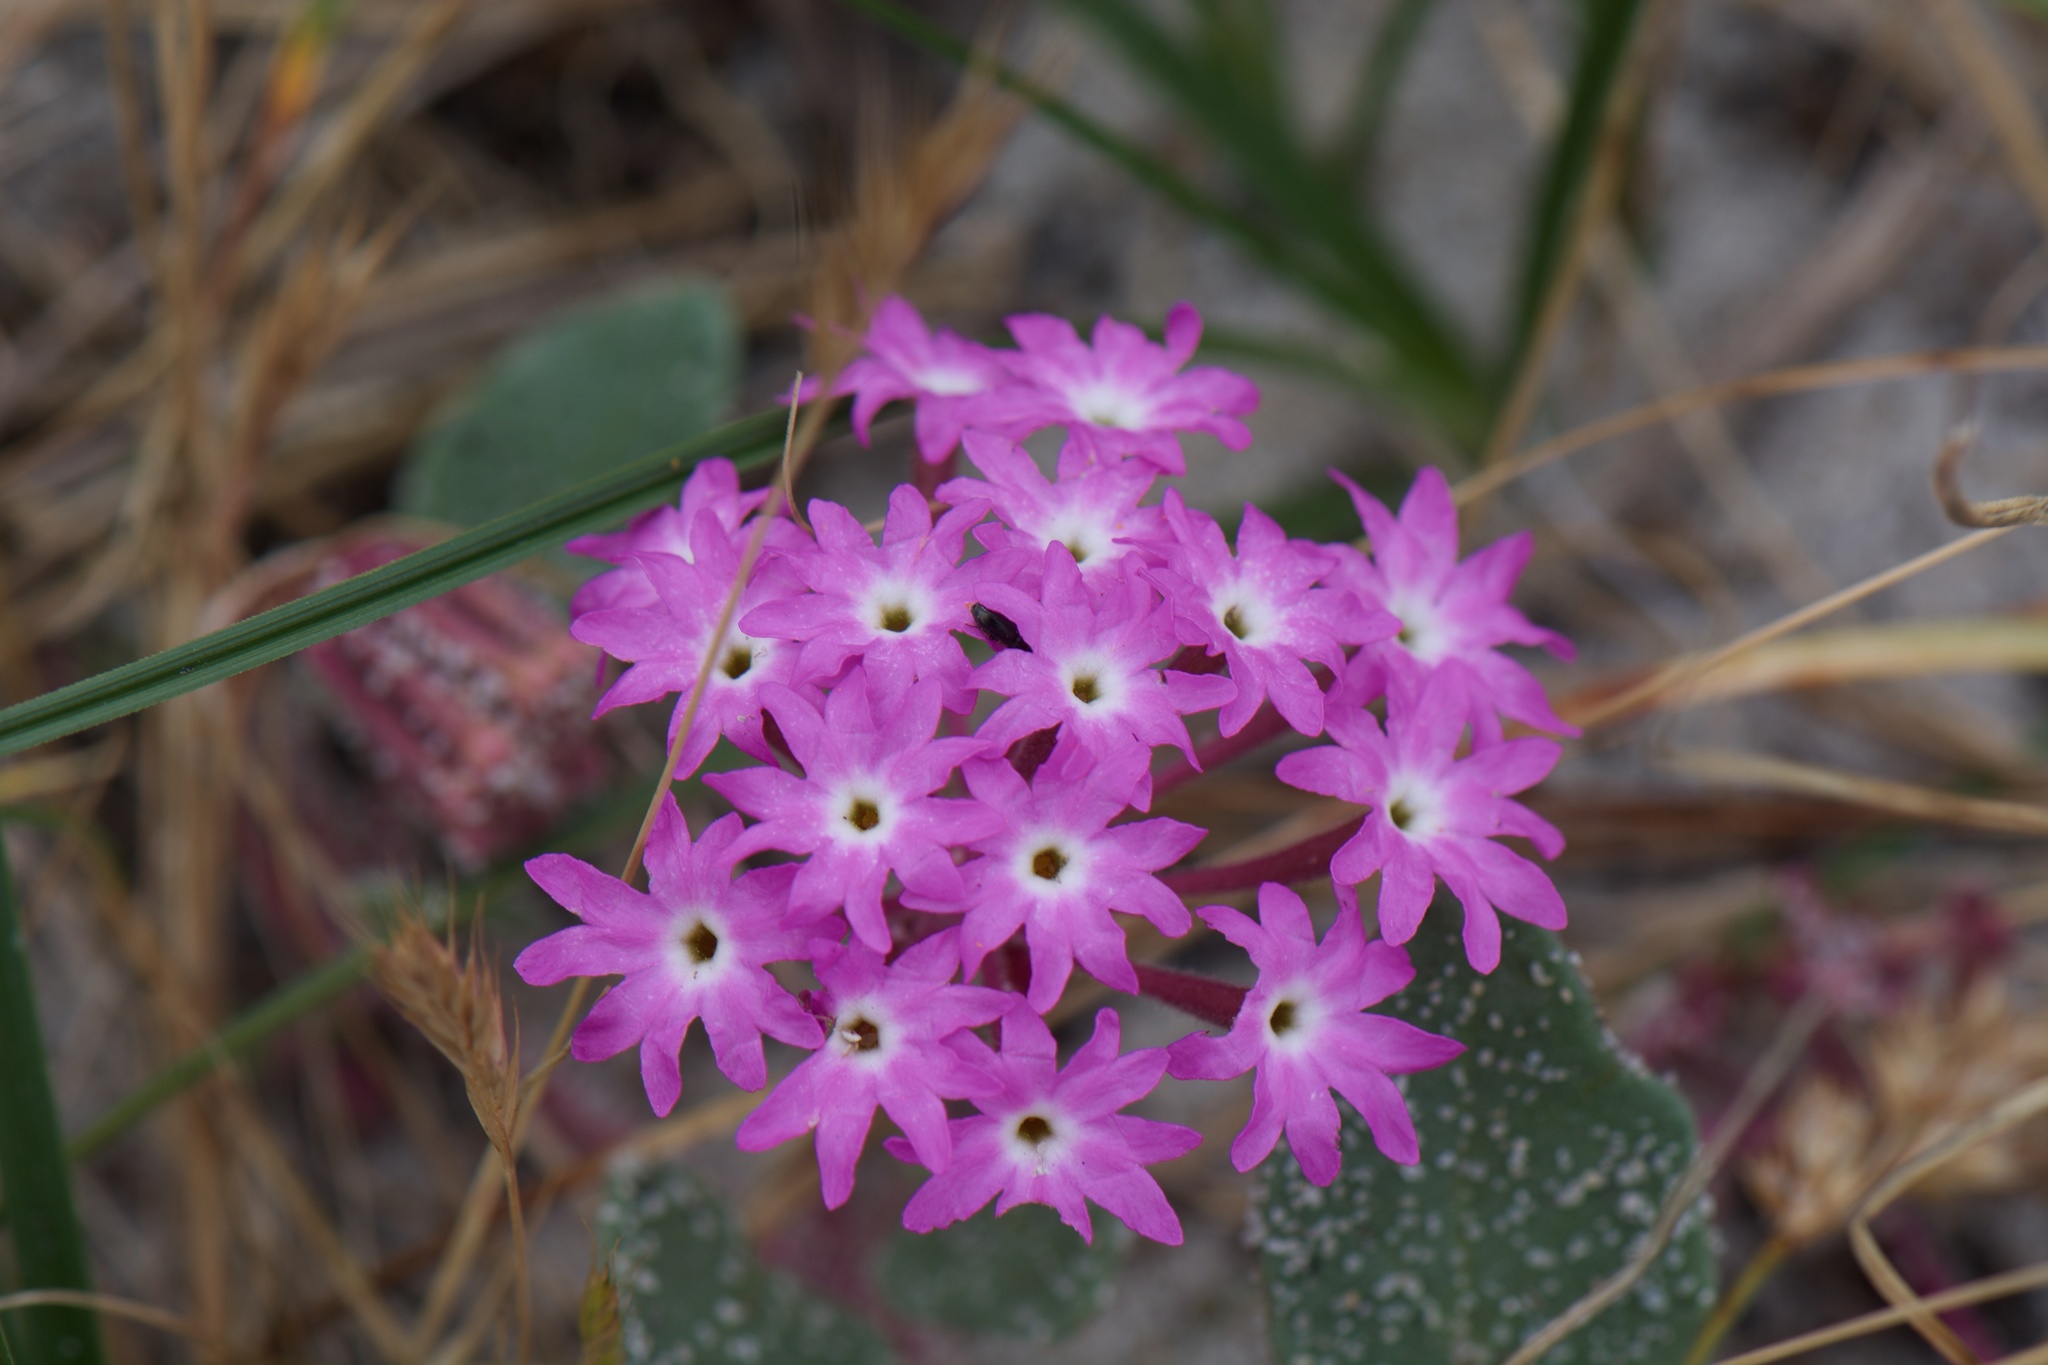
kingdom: Plantae
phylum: Tracheophyta
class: Magnoliopsida
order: Caryophyllales
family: Nyctaginaceae
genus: Abronia
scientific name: Abronia umbellata
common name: Sand-verbena
